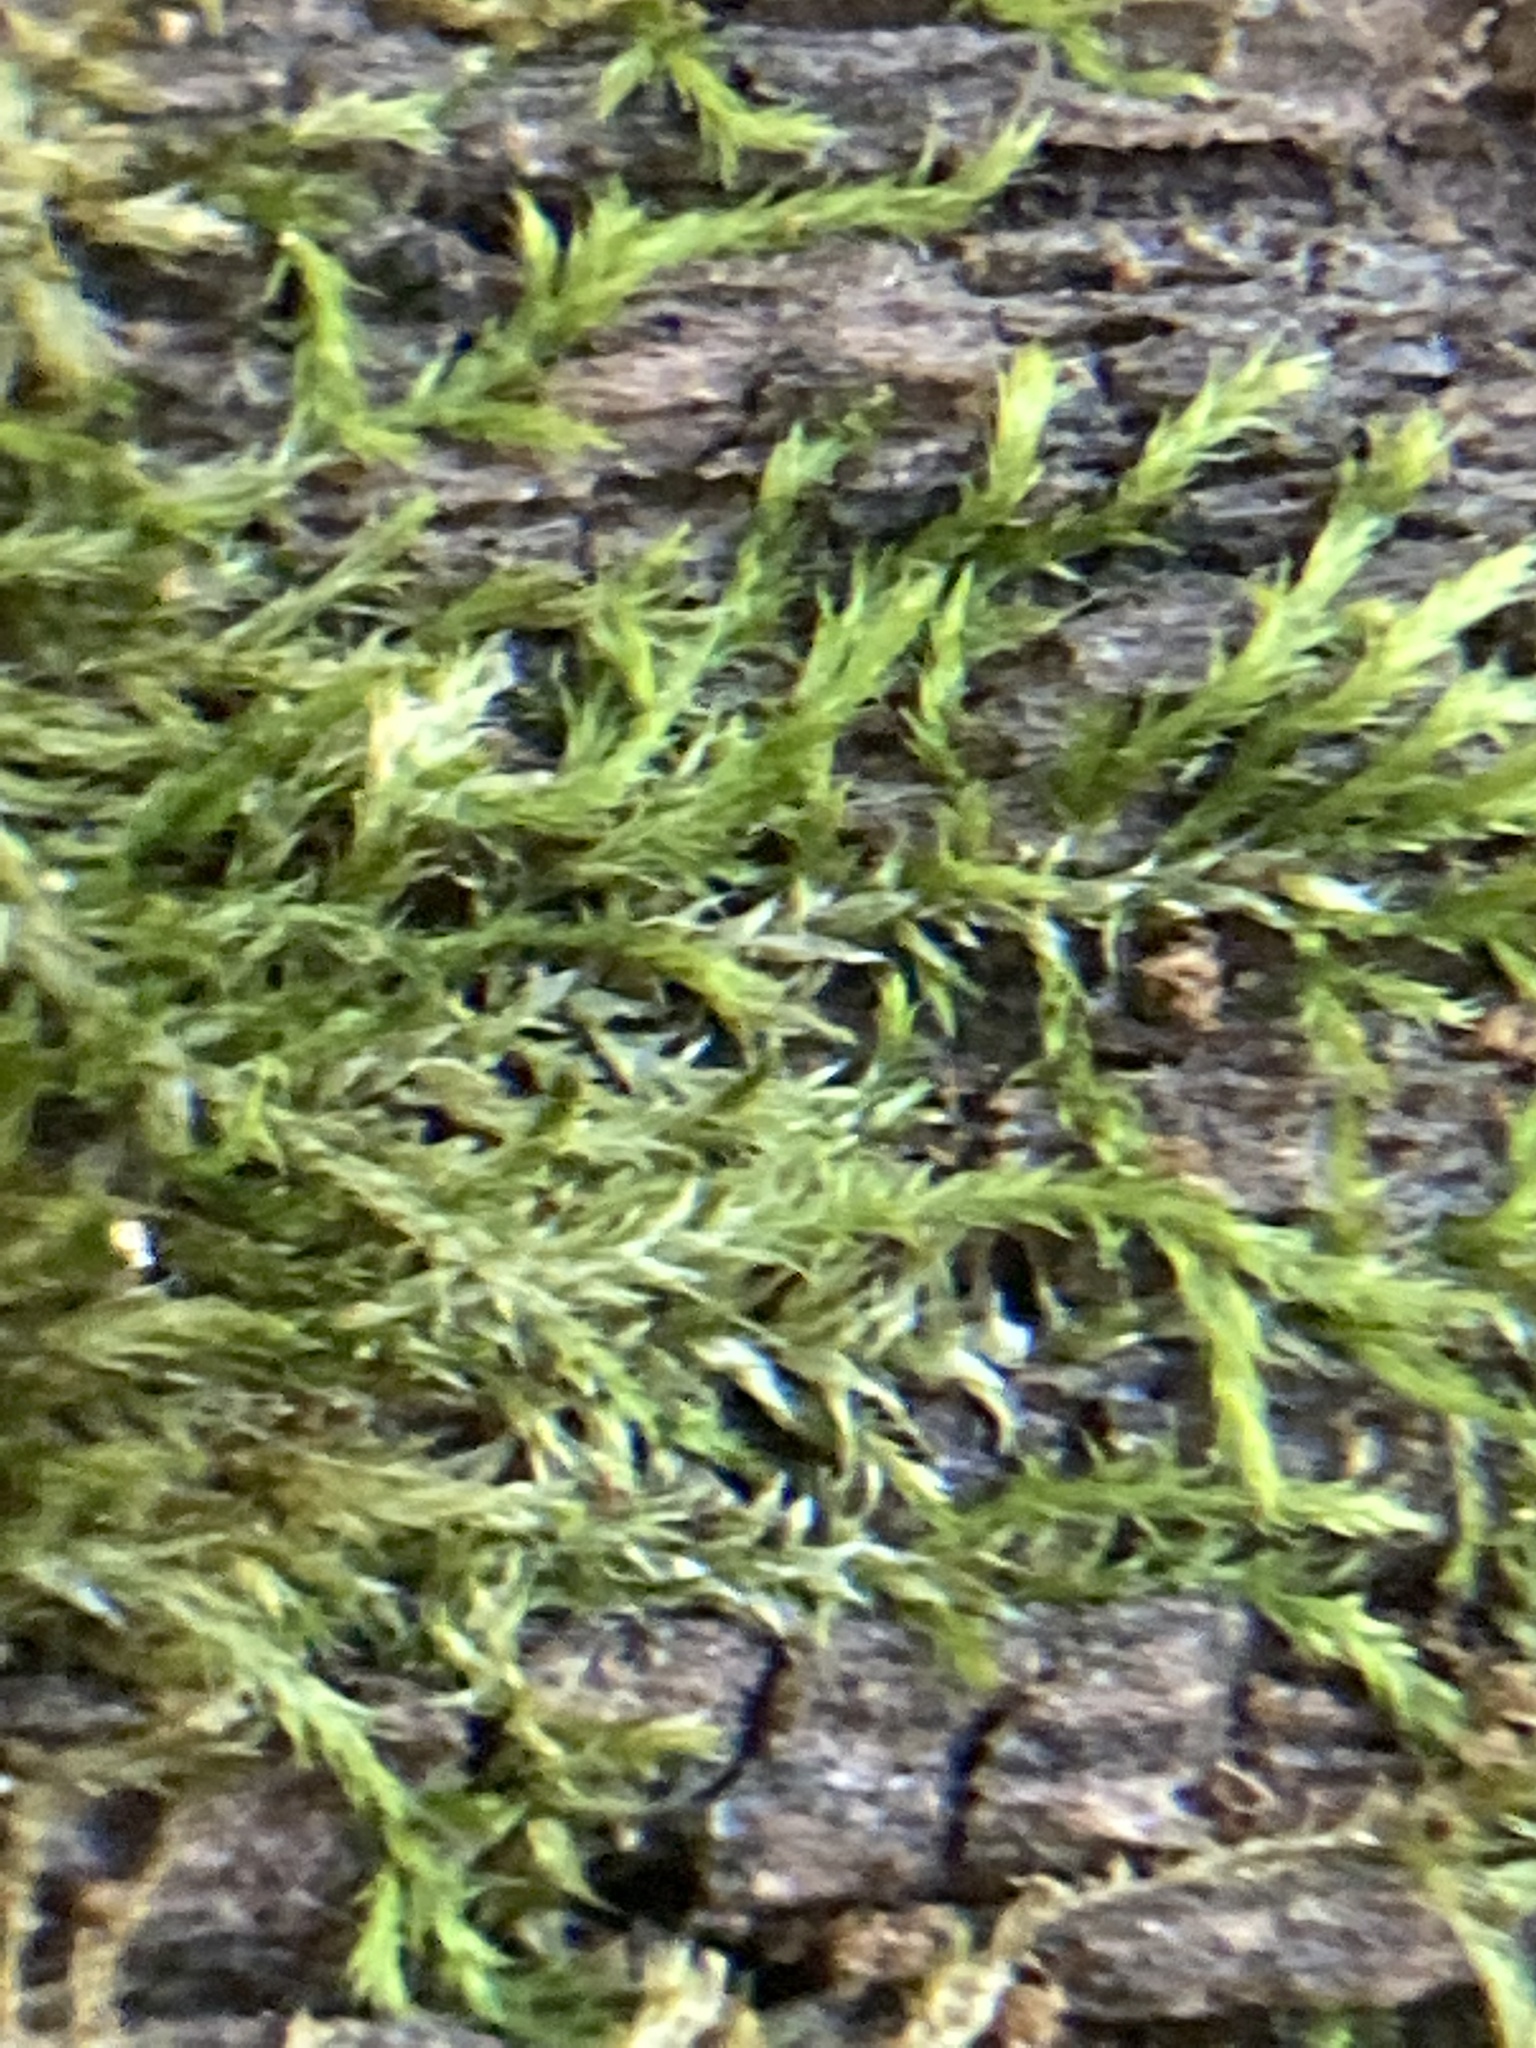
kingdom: Plantae
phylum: Bryophyta
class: Bryopsida
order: Hypnales
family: Callicladiaceae
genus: Callicladium
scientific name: Callicladium haldanianum
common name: Beautiful branch moss
